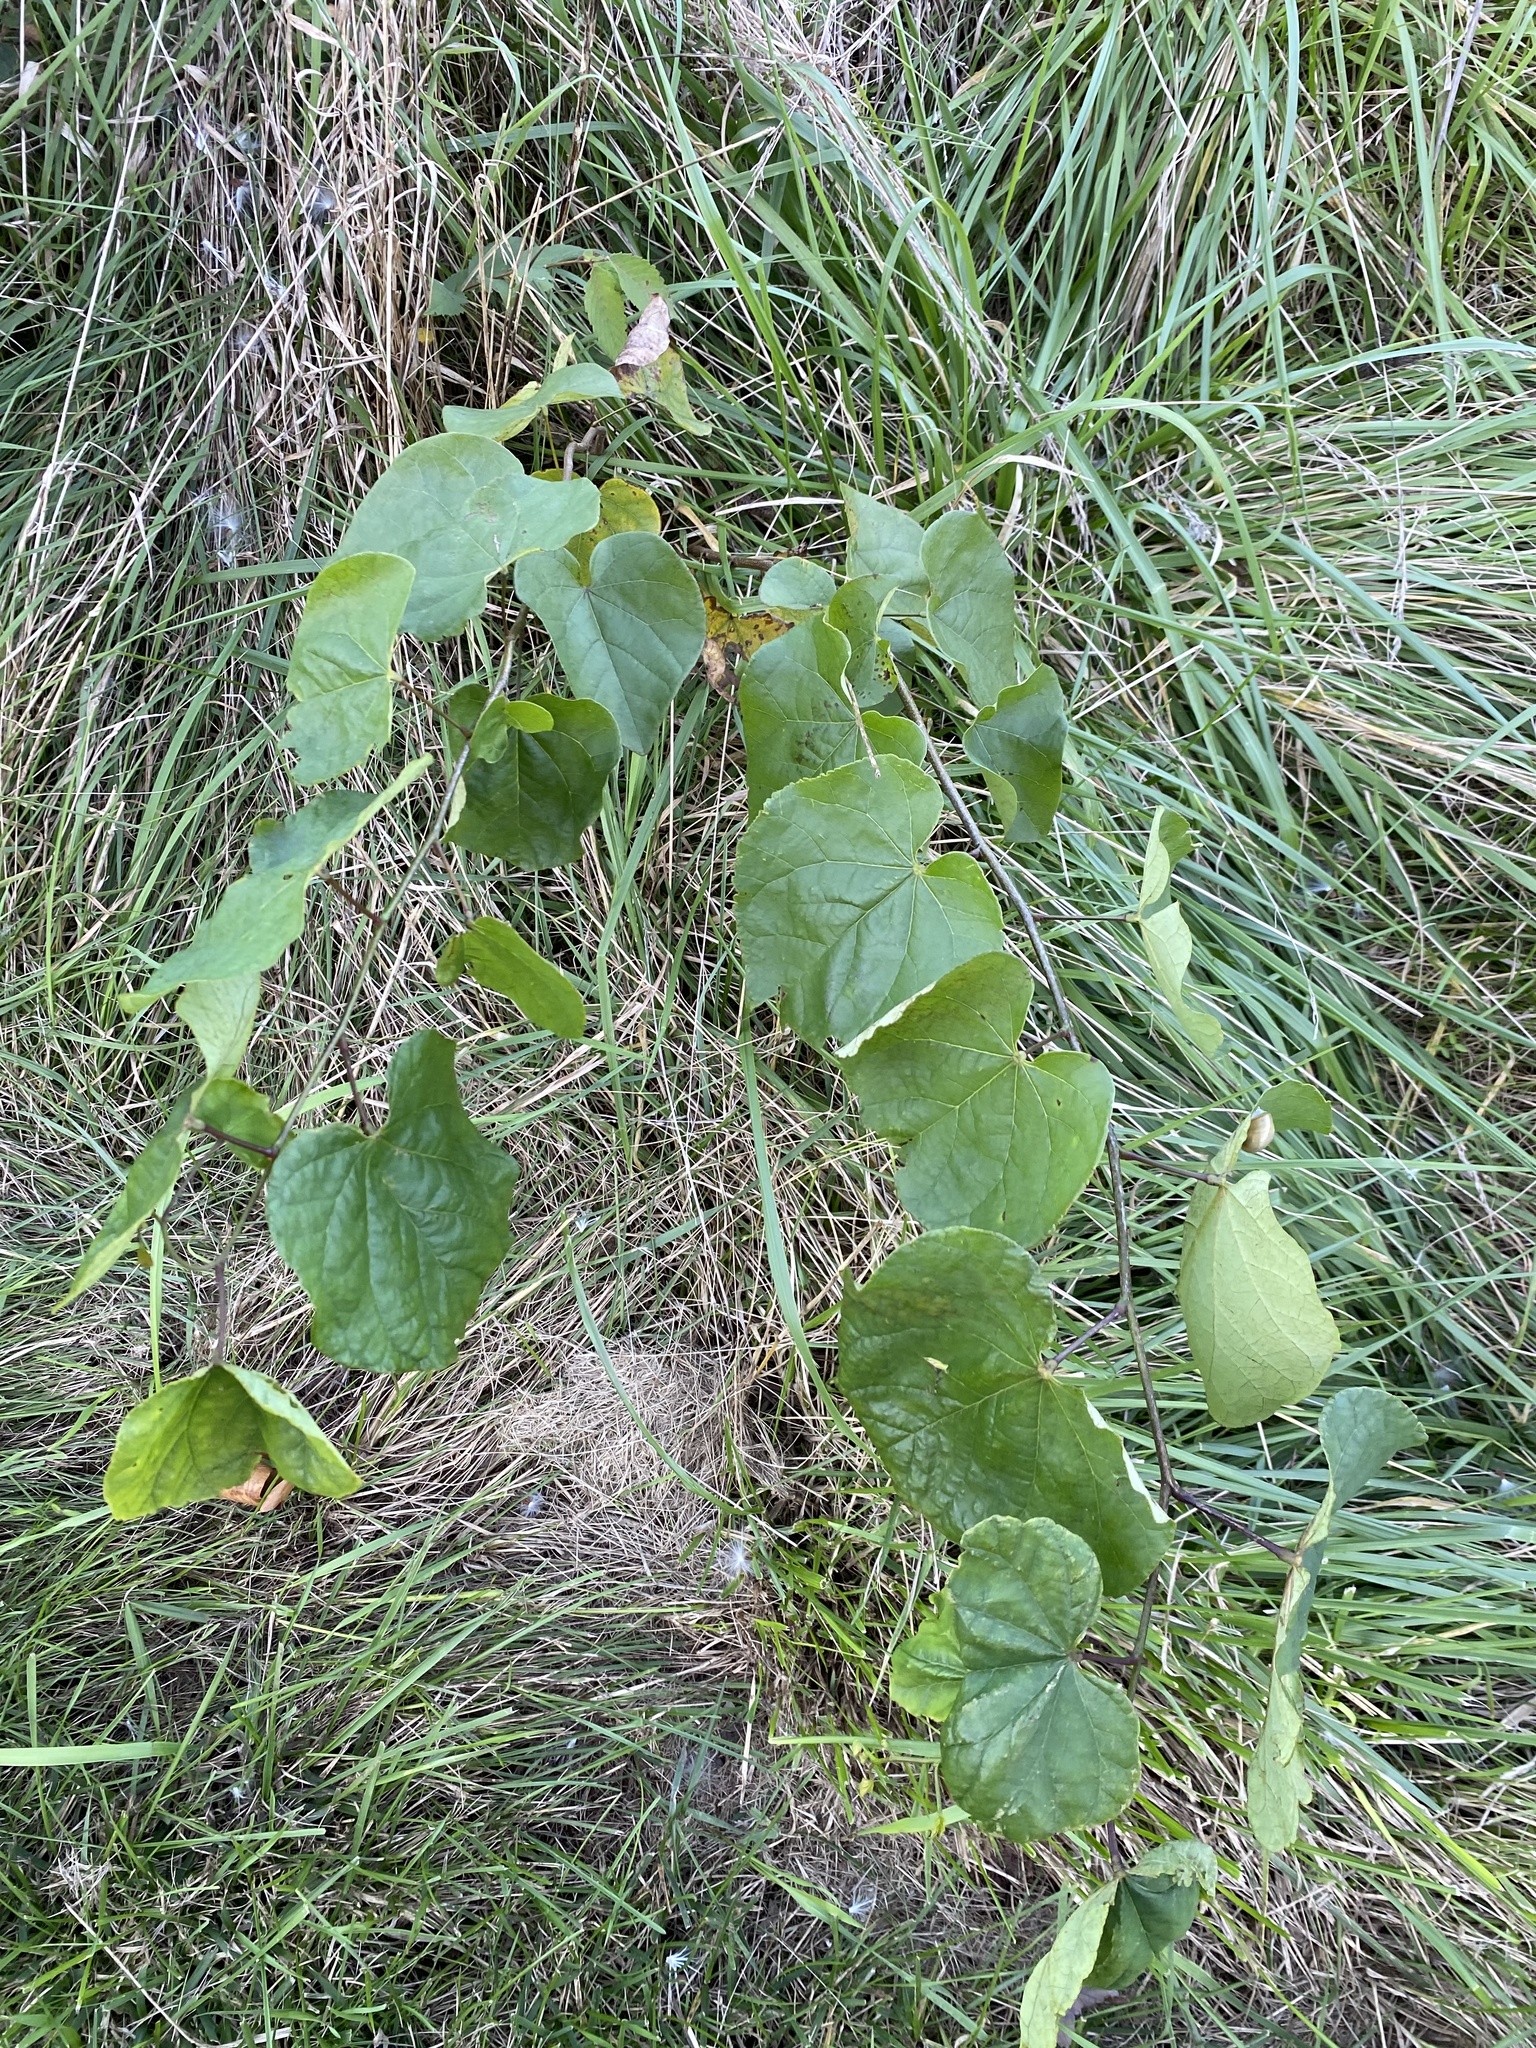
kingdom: Plantae
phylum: Tracheophyta
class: Magnoliopsida
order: Fabales
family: Fabaceae
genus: Cercis
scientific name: Cercis canadensis
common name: Eastern redbud
